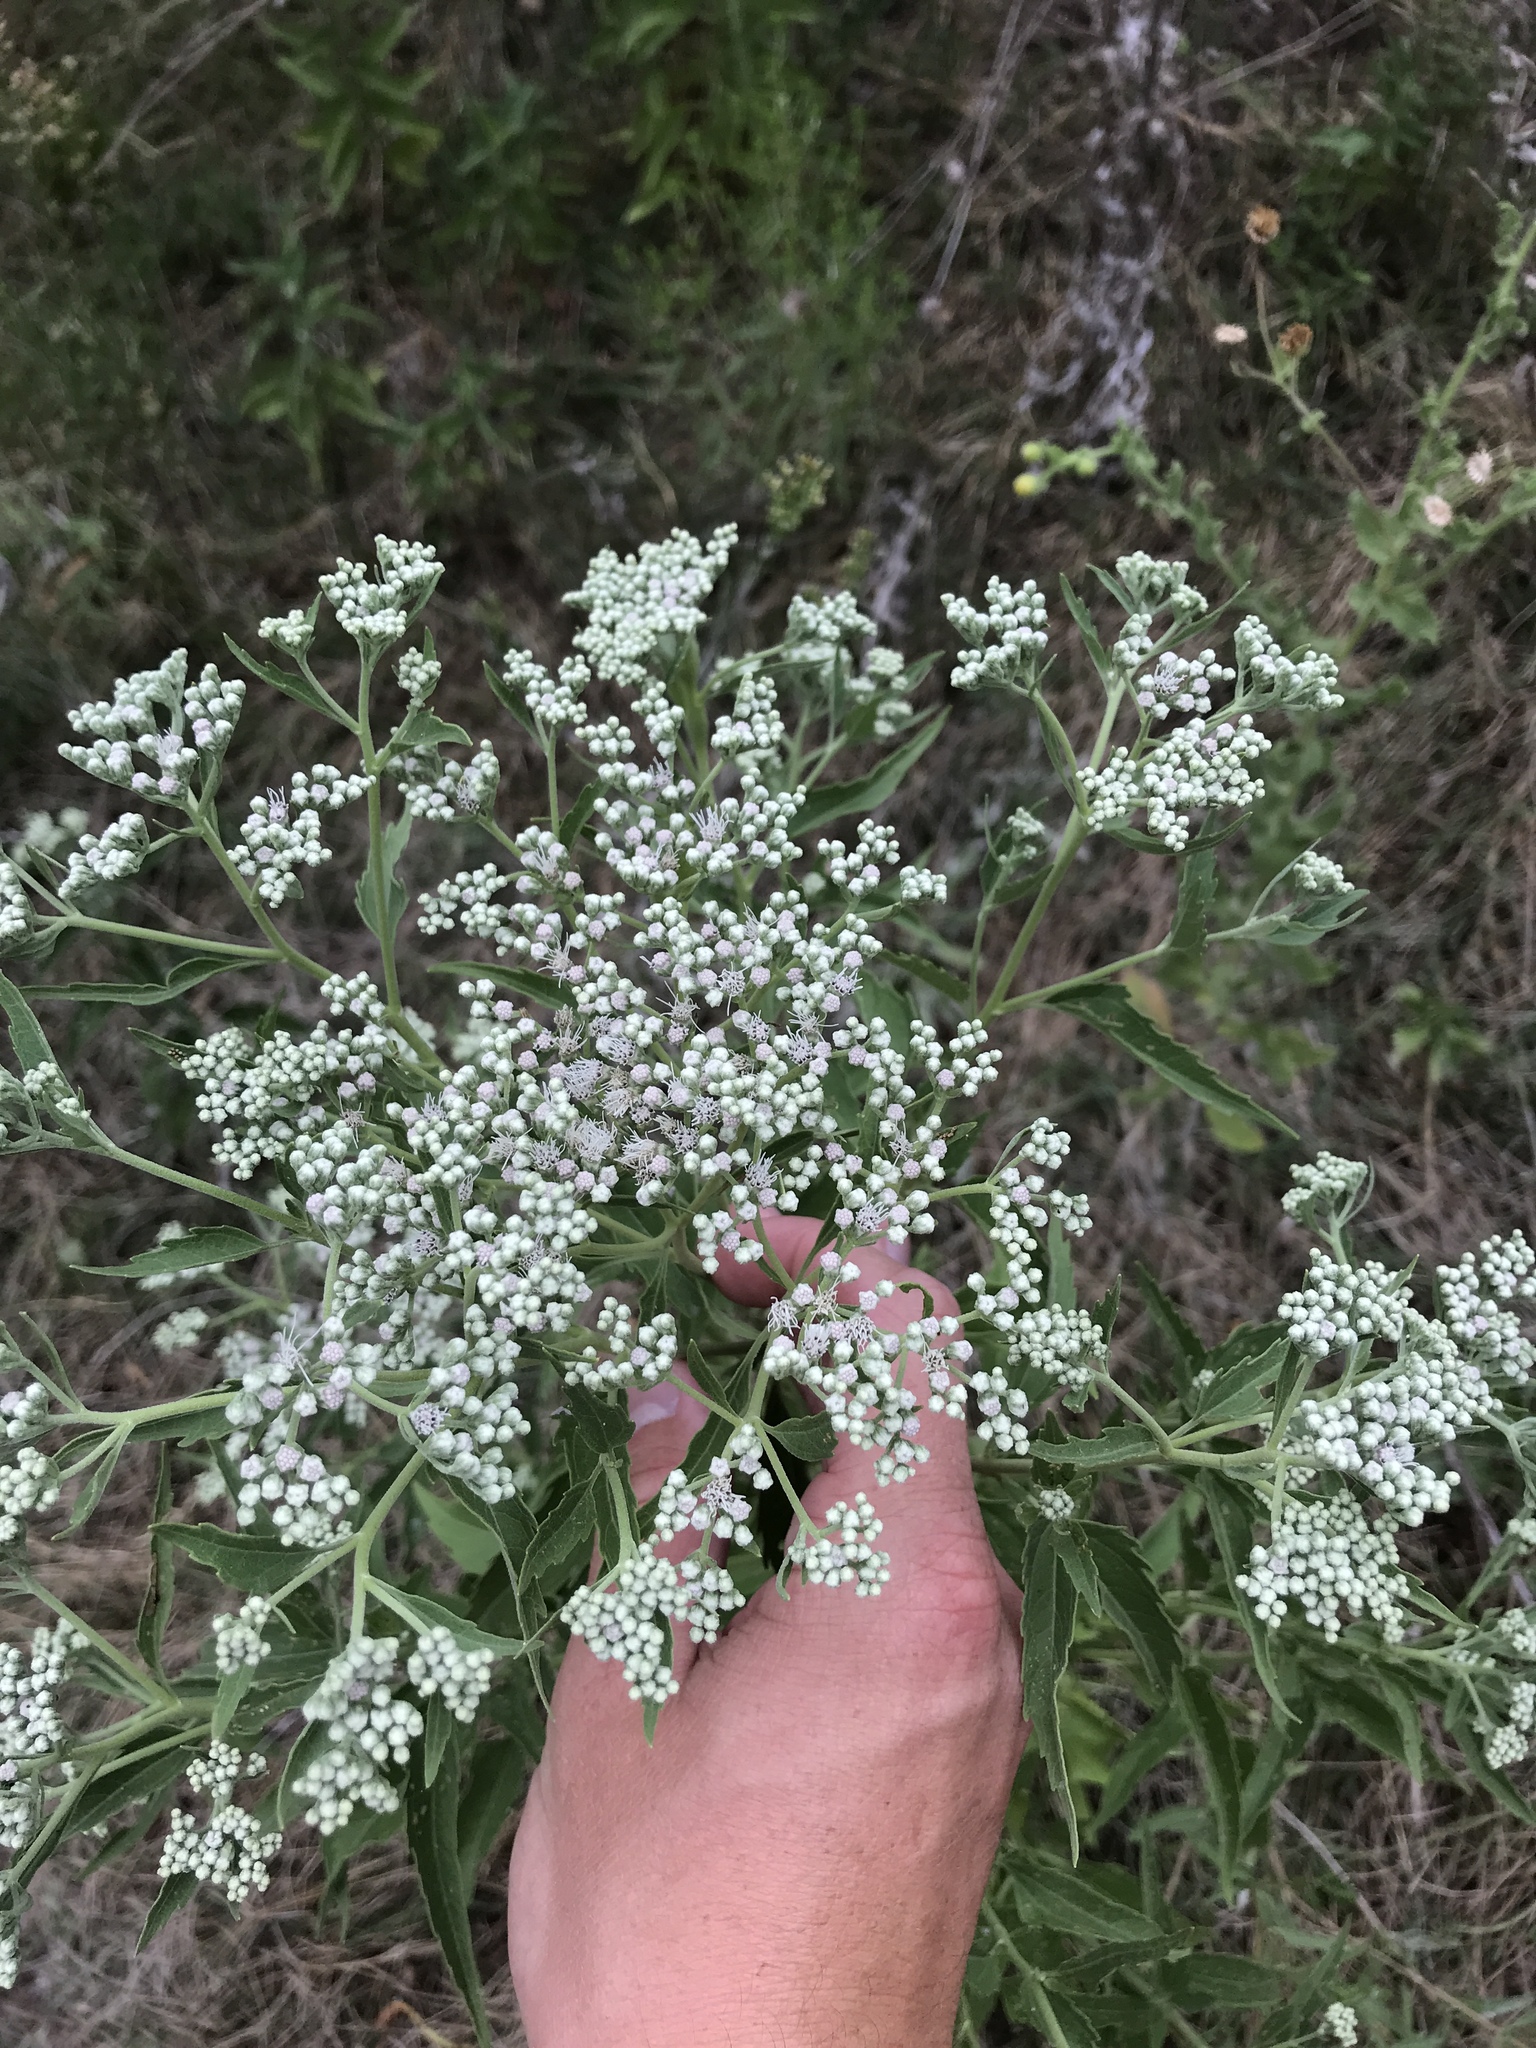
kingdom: Plantae
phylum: Tracheophyta
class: Magnoliopsida
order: Asterales
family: Asteraceae
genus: Eupatorium
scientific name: Eupatorium serotinum
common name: Late boneset
